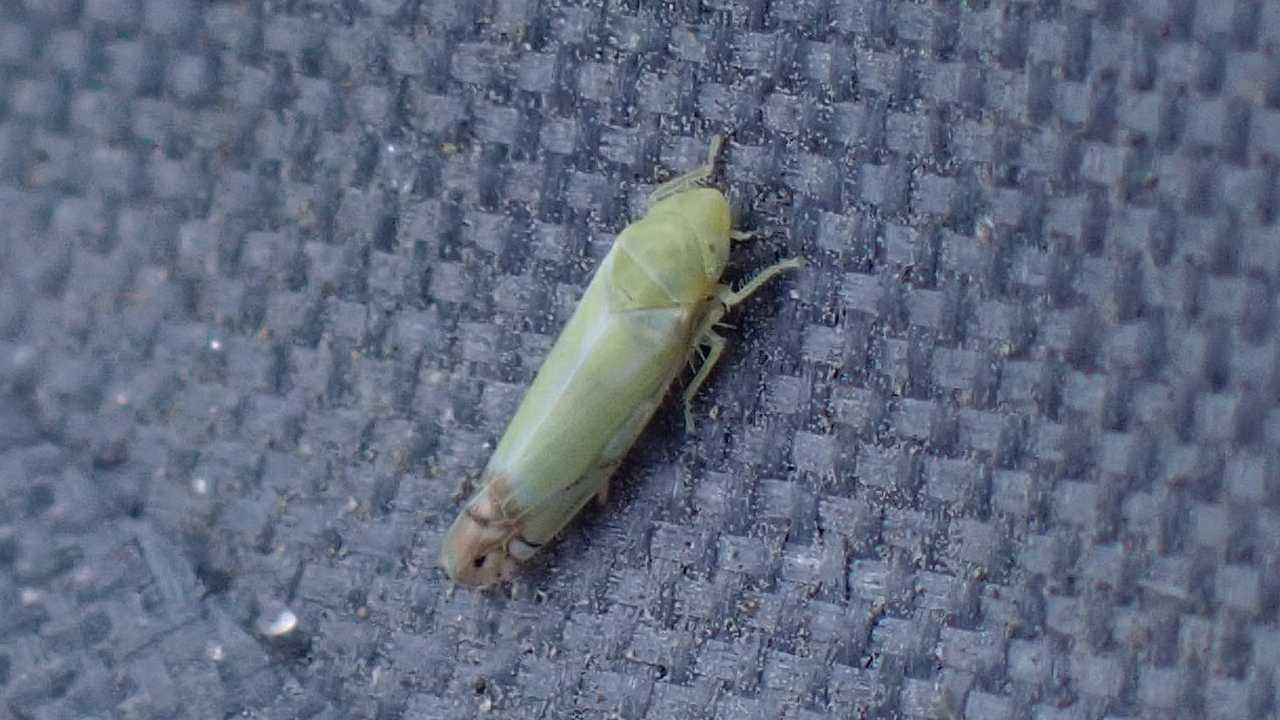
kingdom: Animalia
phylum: Arthropoda
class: Insecta
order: Hemiptera
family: Cicadellidae
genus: Zyginella
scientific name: Zyginella pulchra
